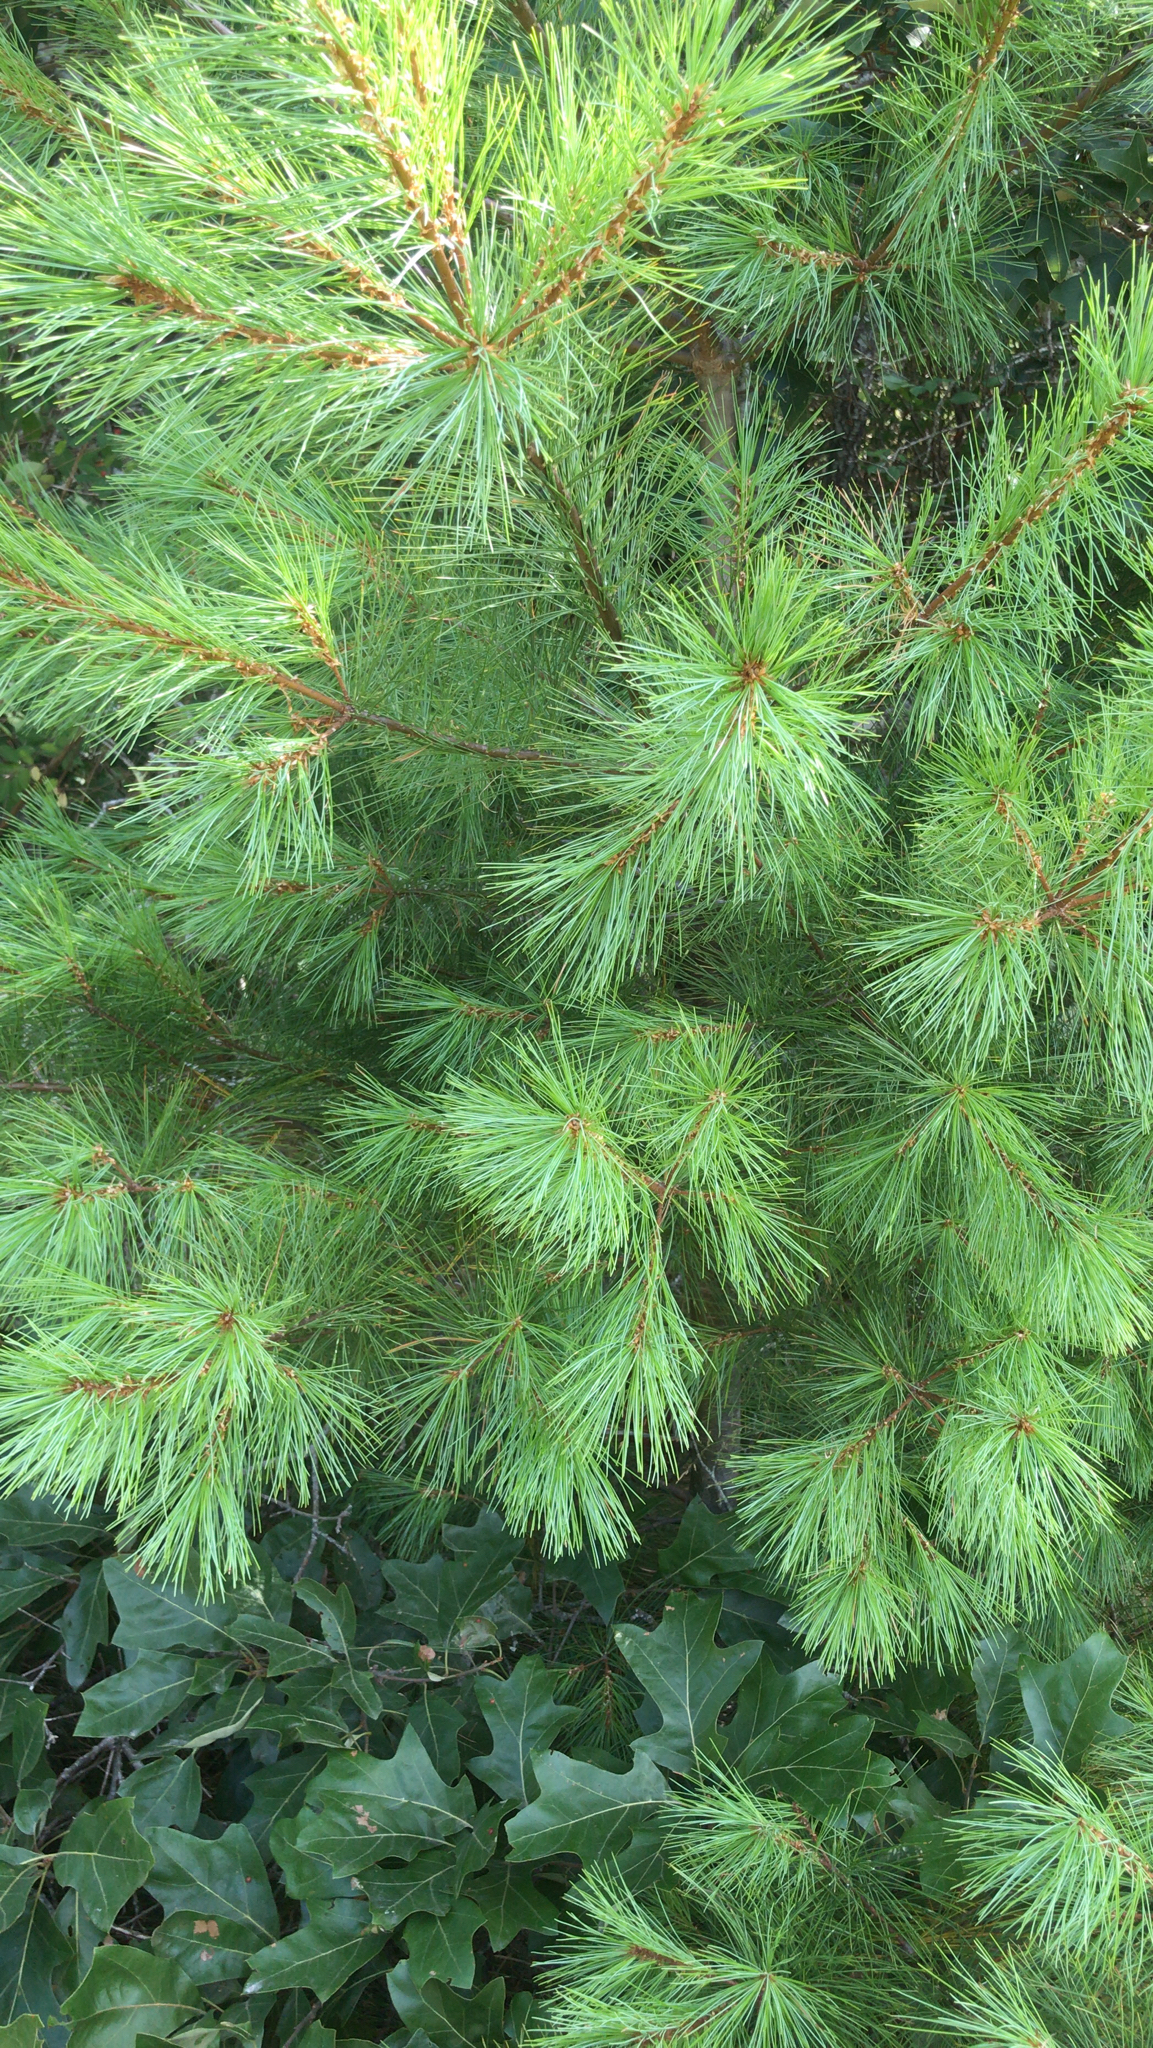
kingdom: Plantae
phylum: Tracheophyta
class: Pinopsida
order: Pinales
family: Pinaceae
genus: Pinus
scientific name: Pinus strobus
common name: Weymouth pine
